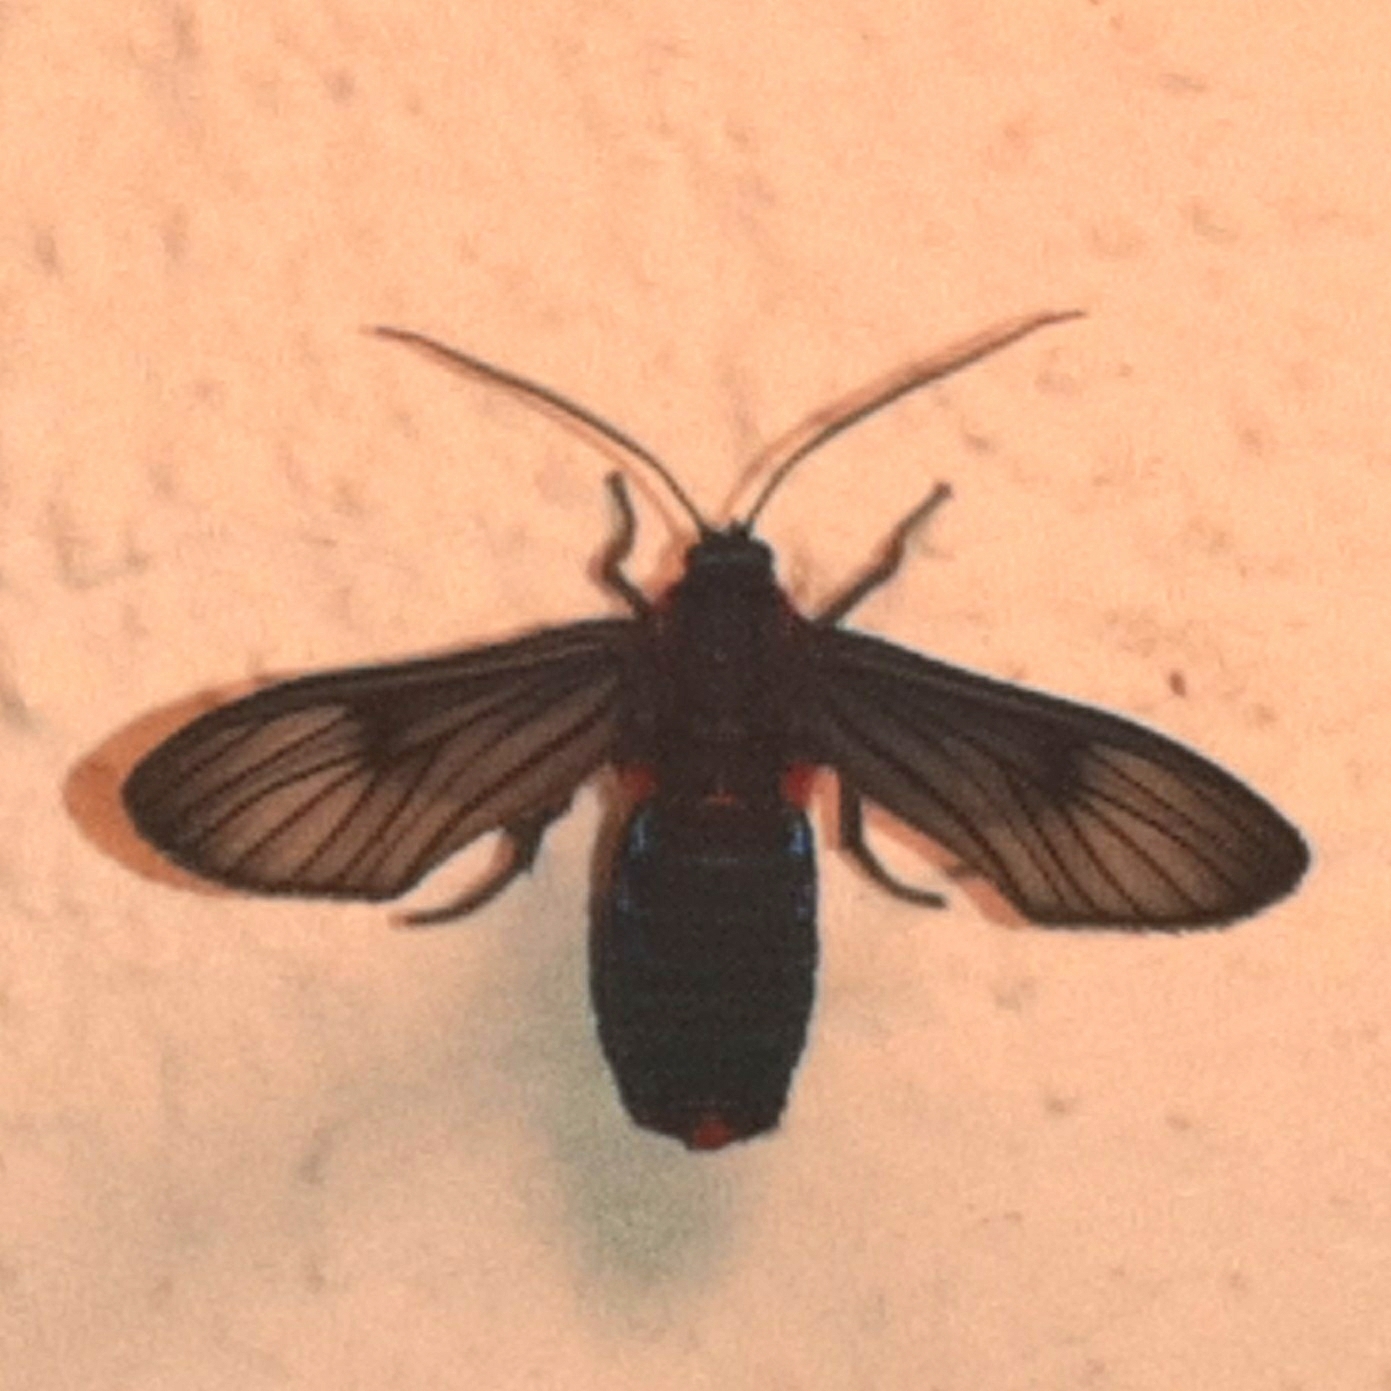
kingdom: Animalia
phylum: Arthropoda
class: Insecta
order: Lepidoptera
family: Erebidae
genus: Saurita
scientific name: Saurita nigripalpia
